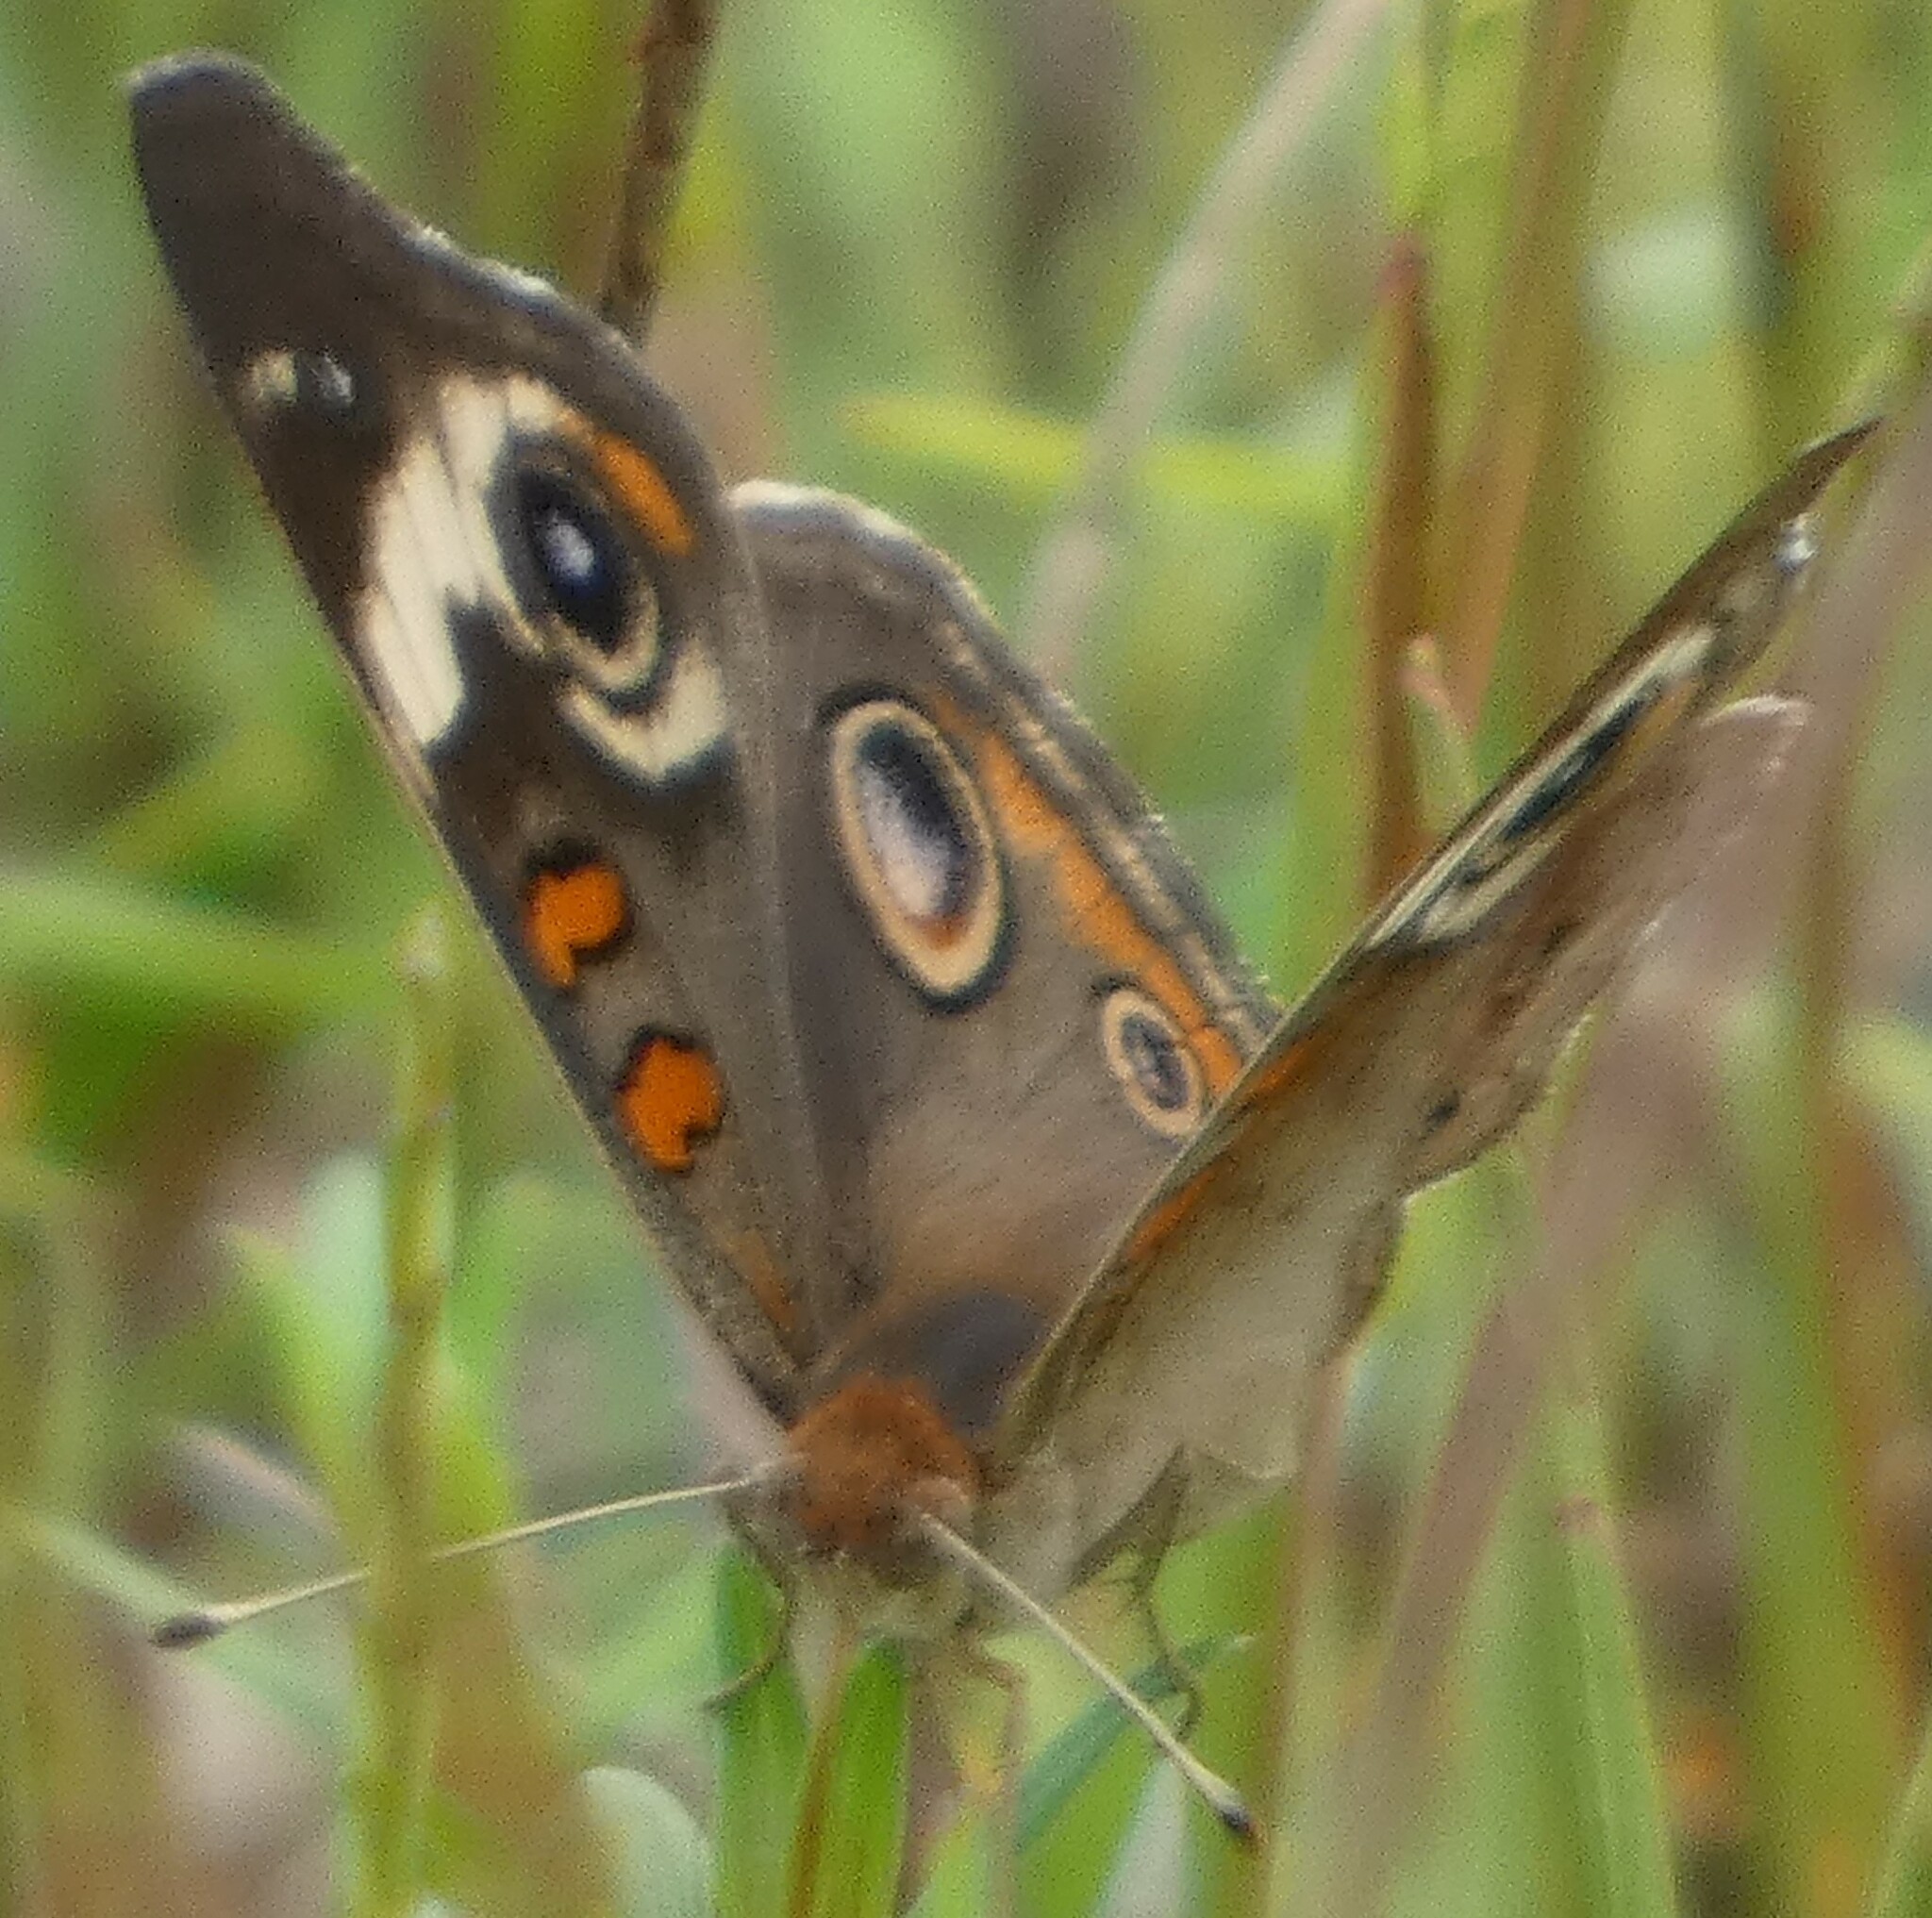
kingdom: Animalia
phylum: Arthropoda
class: Insecta
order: Lepidoptera
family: Nymphalidae
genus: Junonia
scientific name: Junonia coenia
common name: Common buckeye
